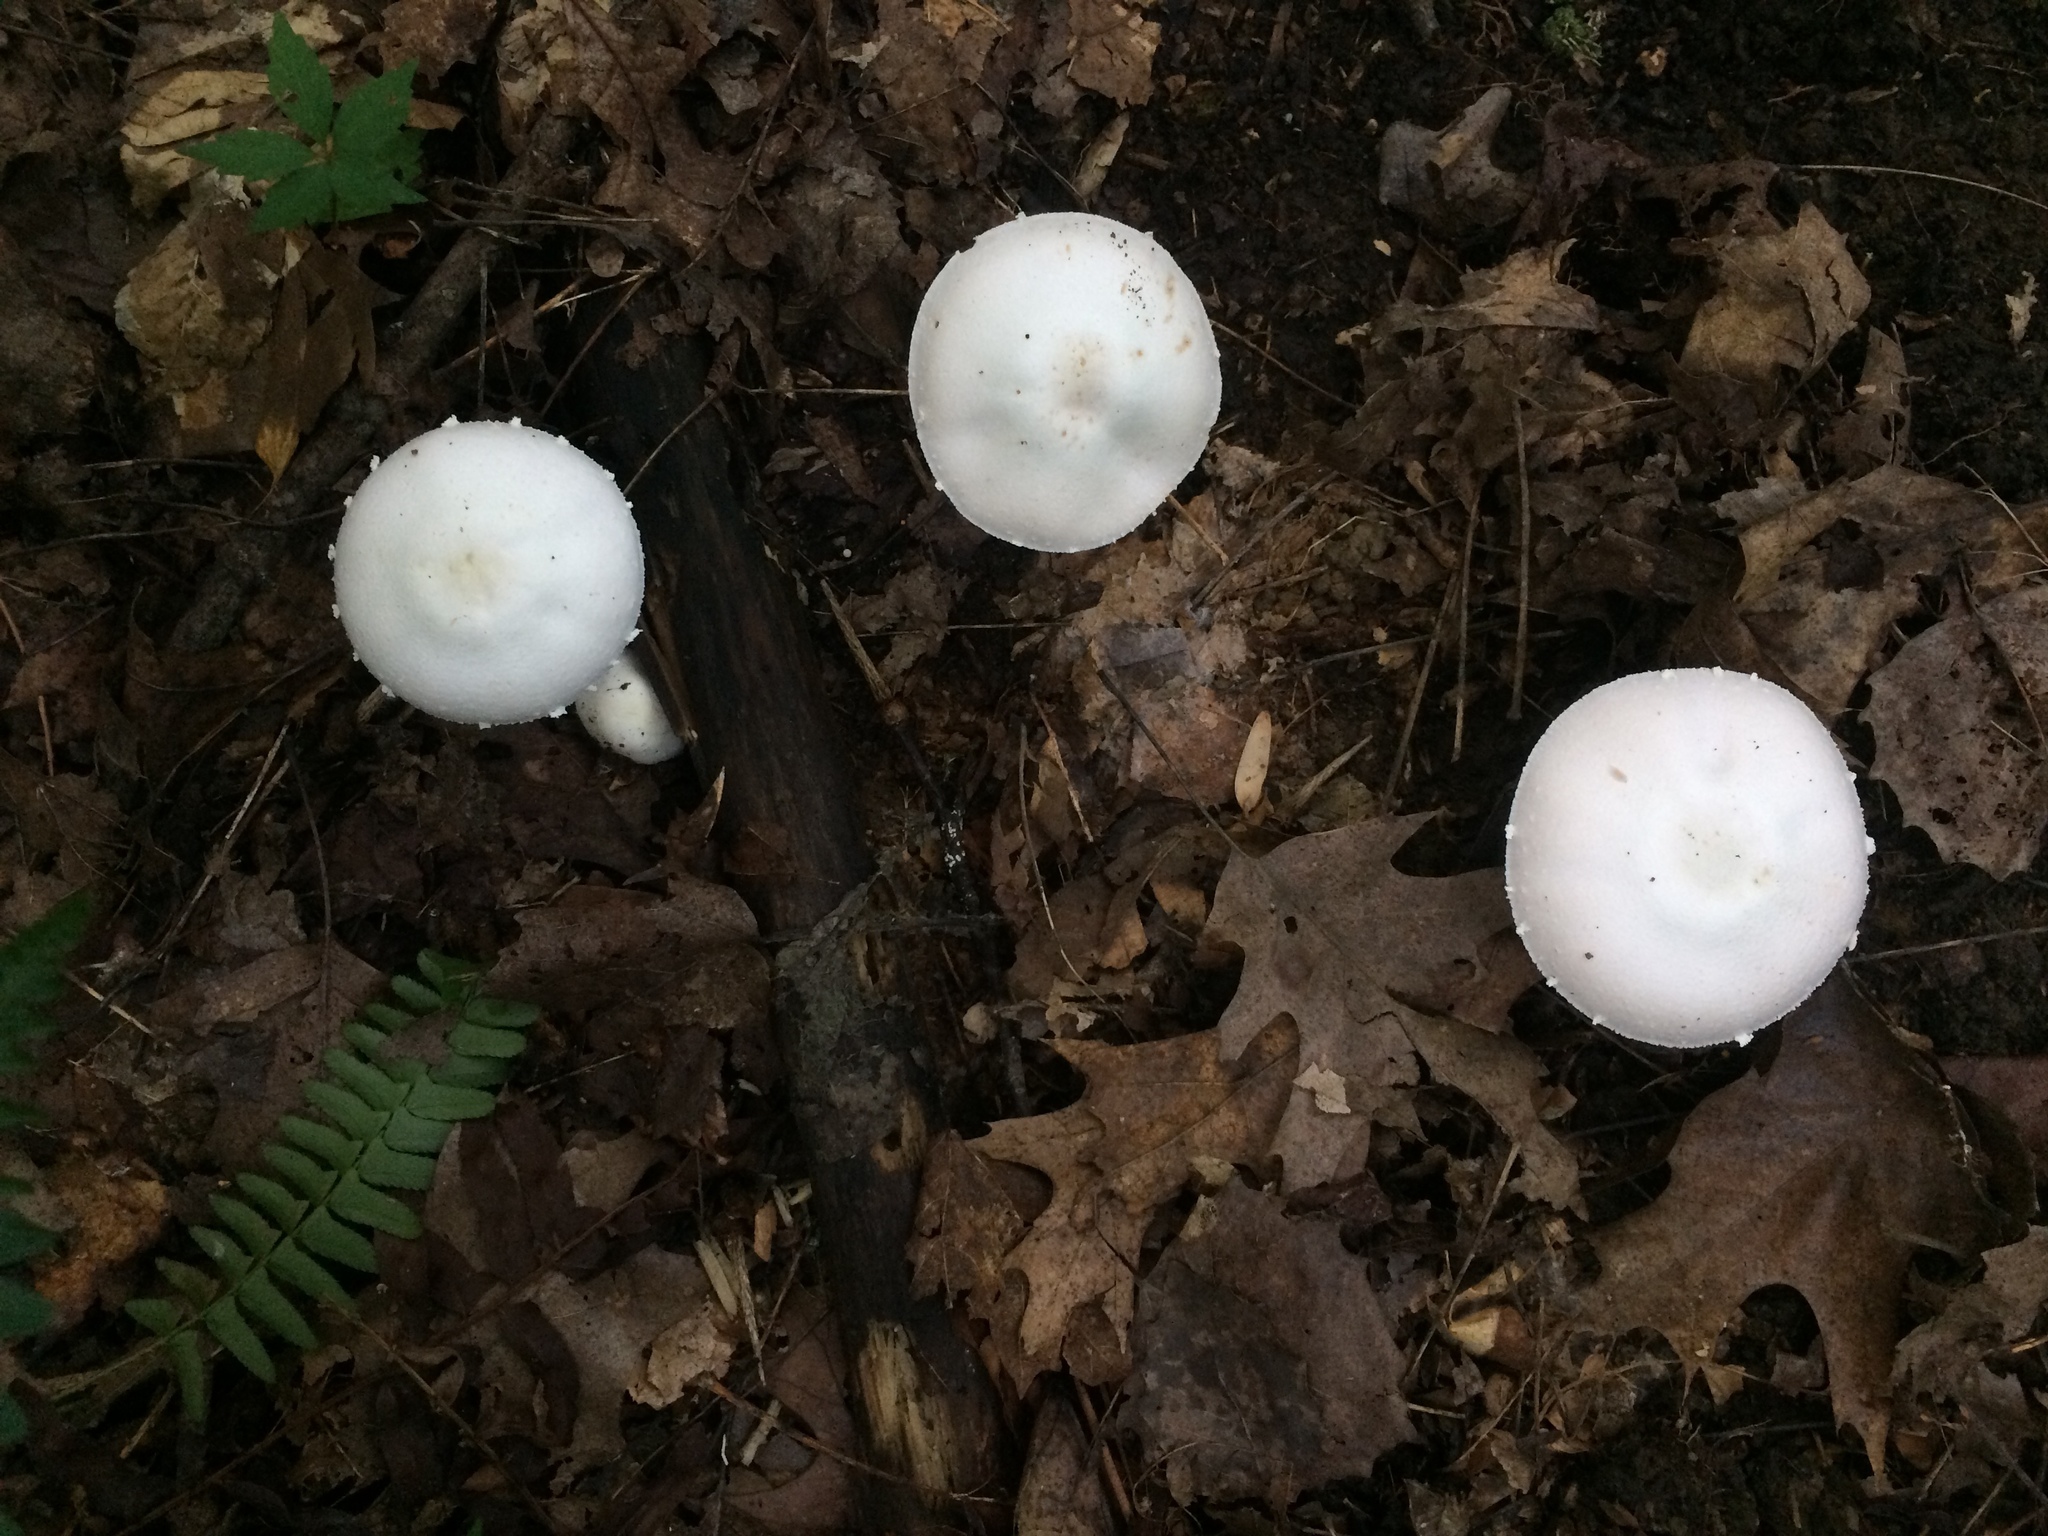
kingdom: Fungi
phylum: Basidiomycota
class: Agaricomycetes
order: Agaricales
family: Agaricaceae
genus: Agaricus
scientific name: Agaricus butyreburneus
